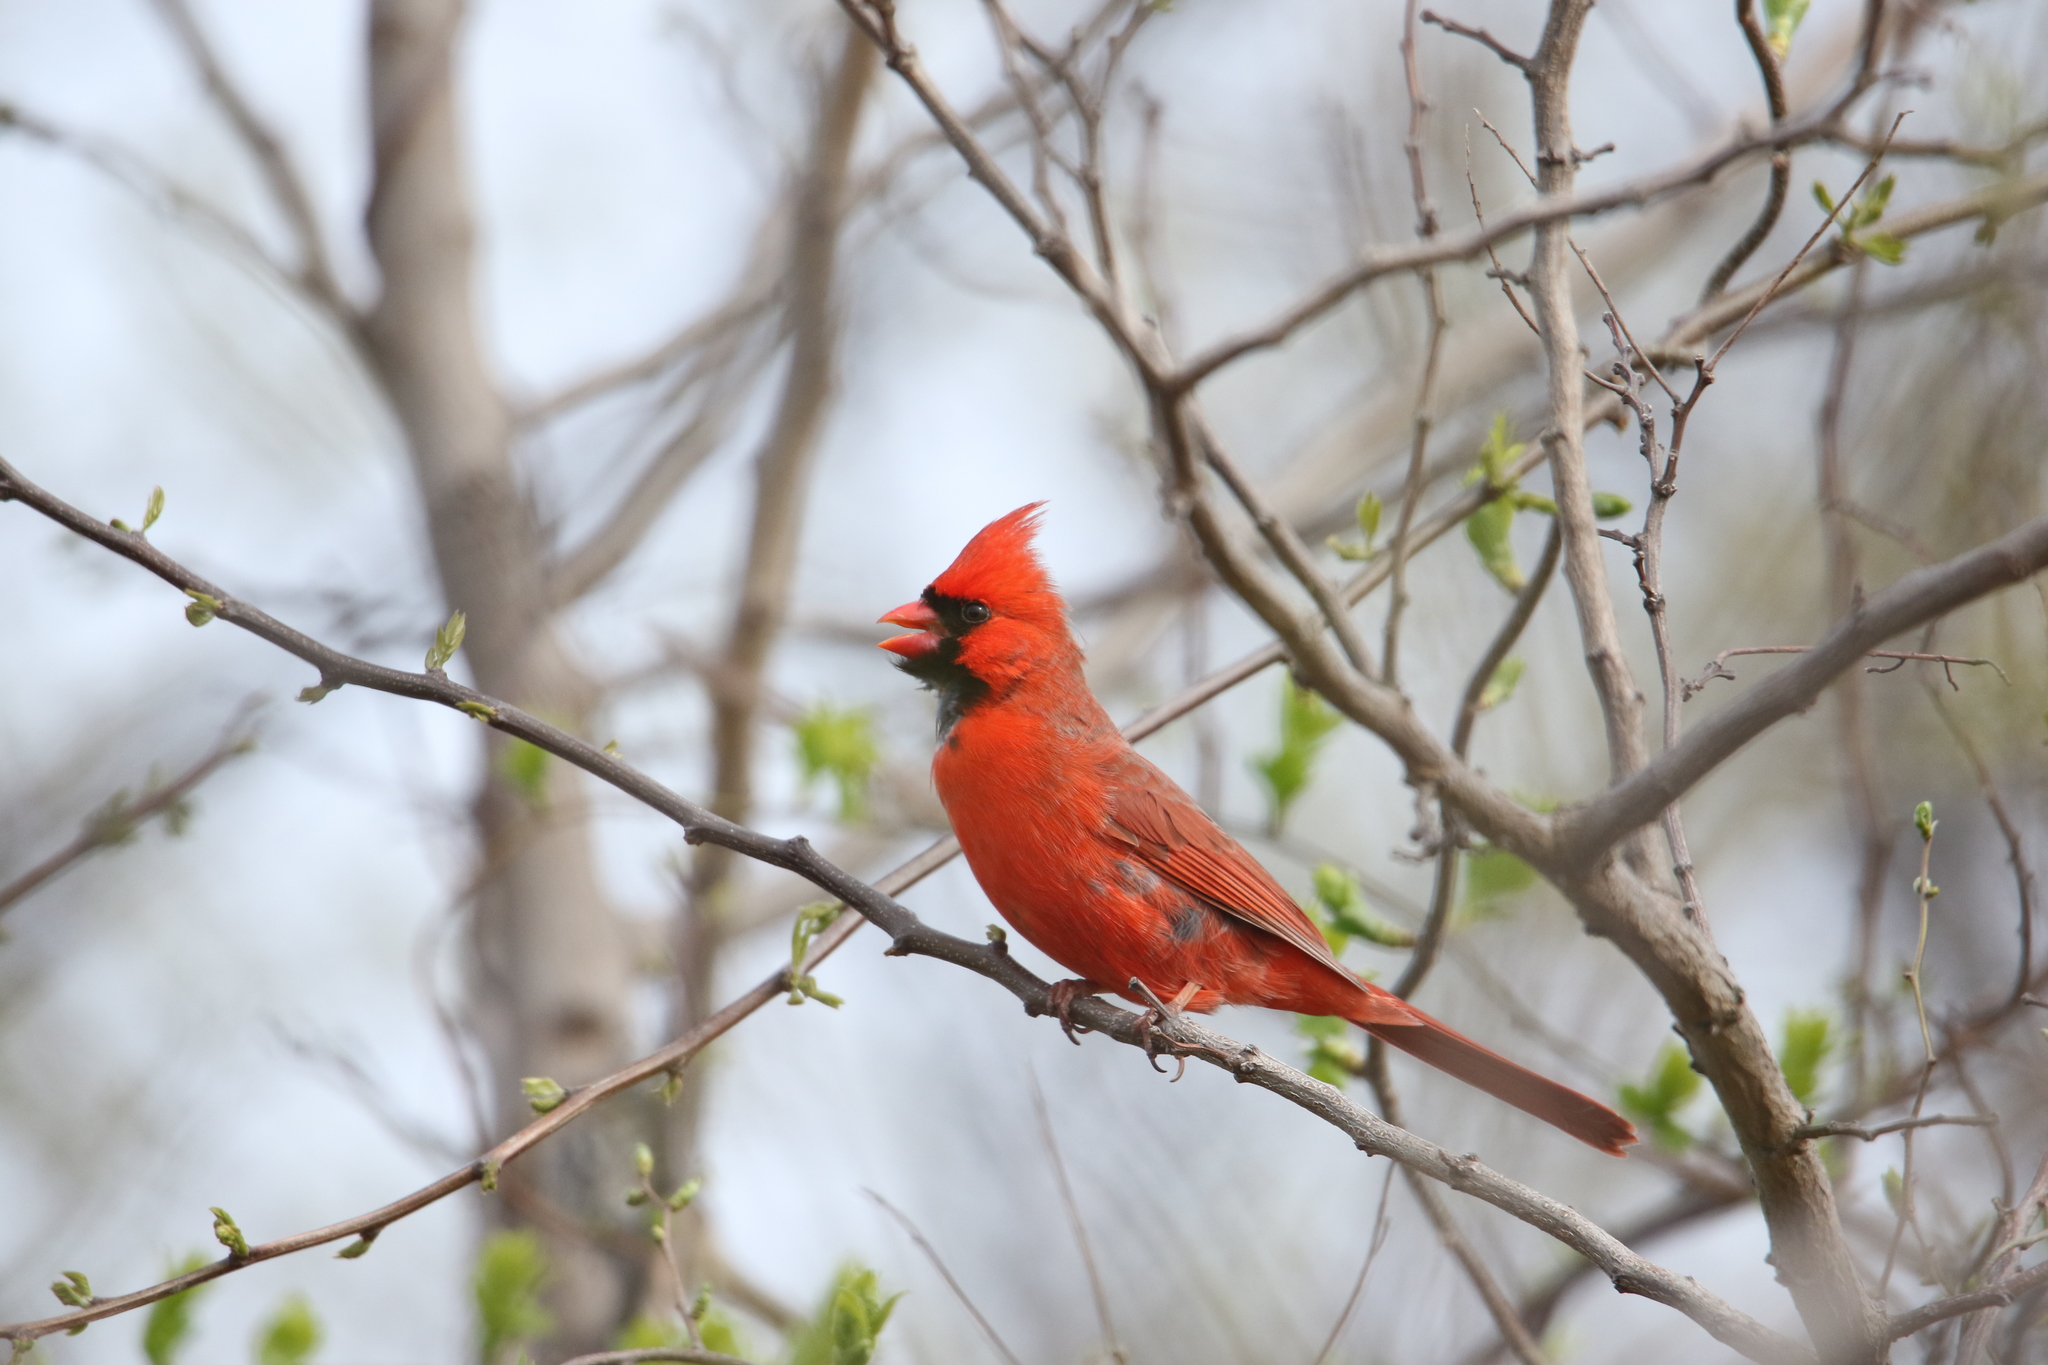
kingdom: Animalia
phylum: Chordata
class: Aves
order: Passeriformes
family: Cardinalidae
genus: Cardinalis
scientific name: Cardinalis cardinalis
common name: Northern cardinal
